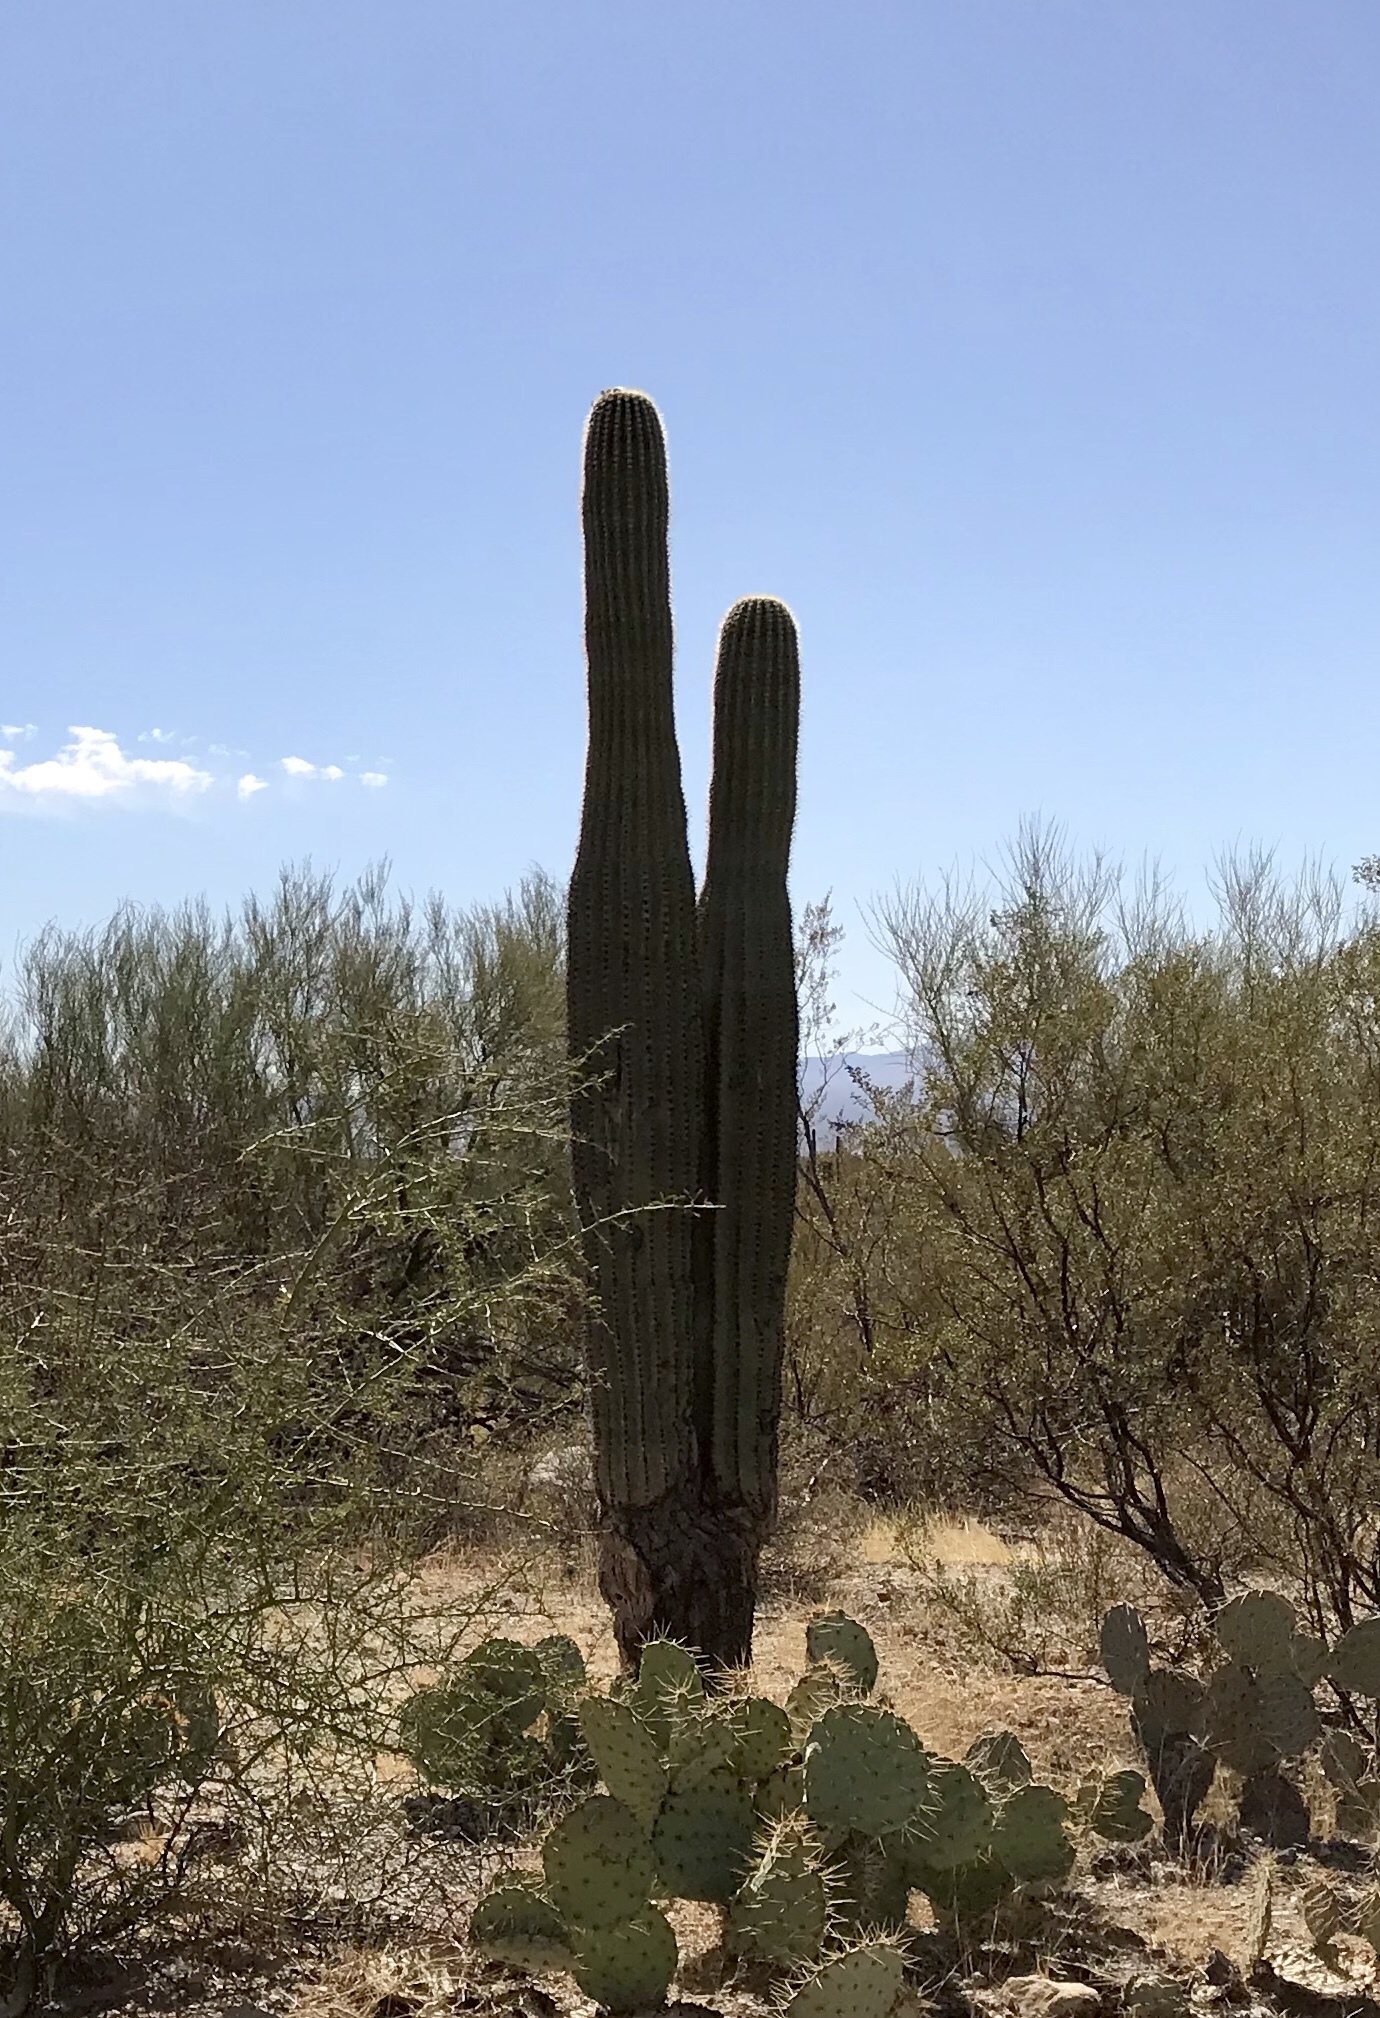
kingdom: Plantae
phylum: Tracheophyta
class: Magnoliopsida
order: Caryophyllales
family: Cactaceae
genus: Carnegiea
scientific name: Carnegiea gigantea
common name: Saguaro
